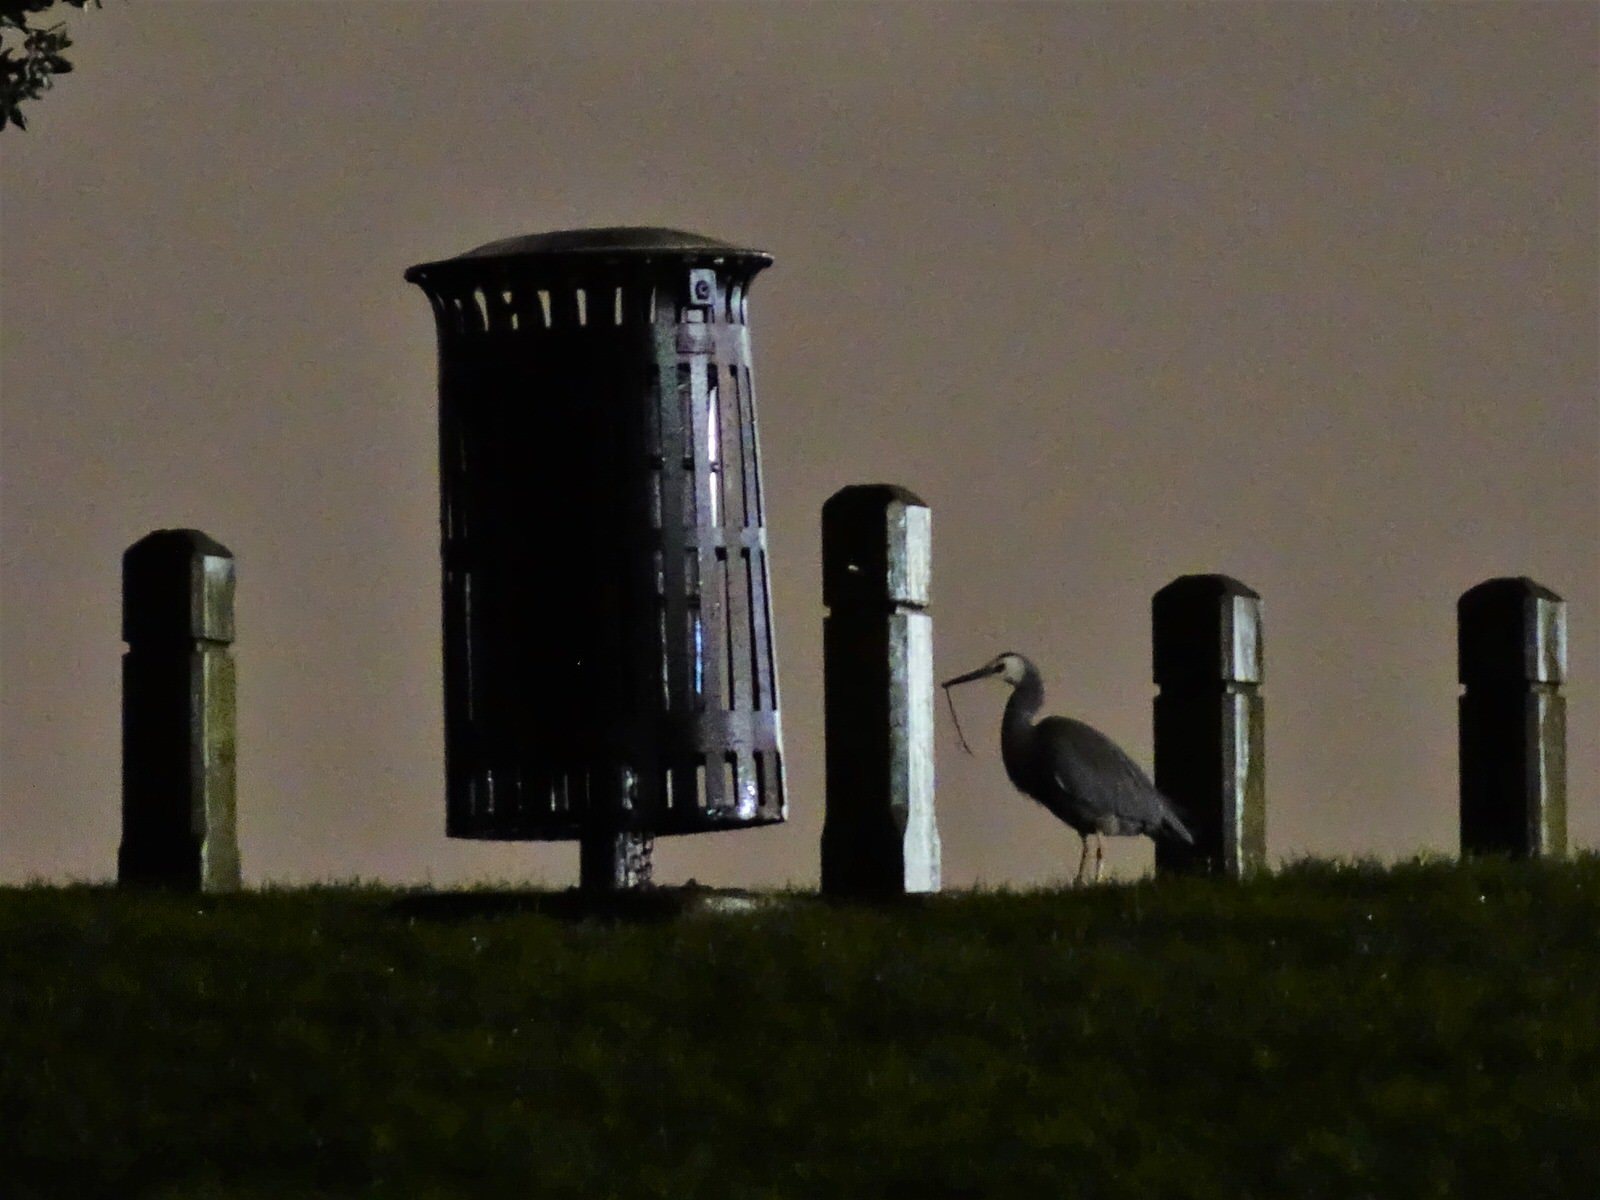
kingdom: Animalia
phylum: Chordata
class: Aves
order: Pelecaniformes
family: Ardeidae
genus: Egretta
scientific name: Egretta novaehollandiae
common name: White-faced heron
